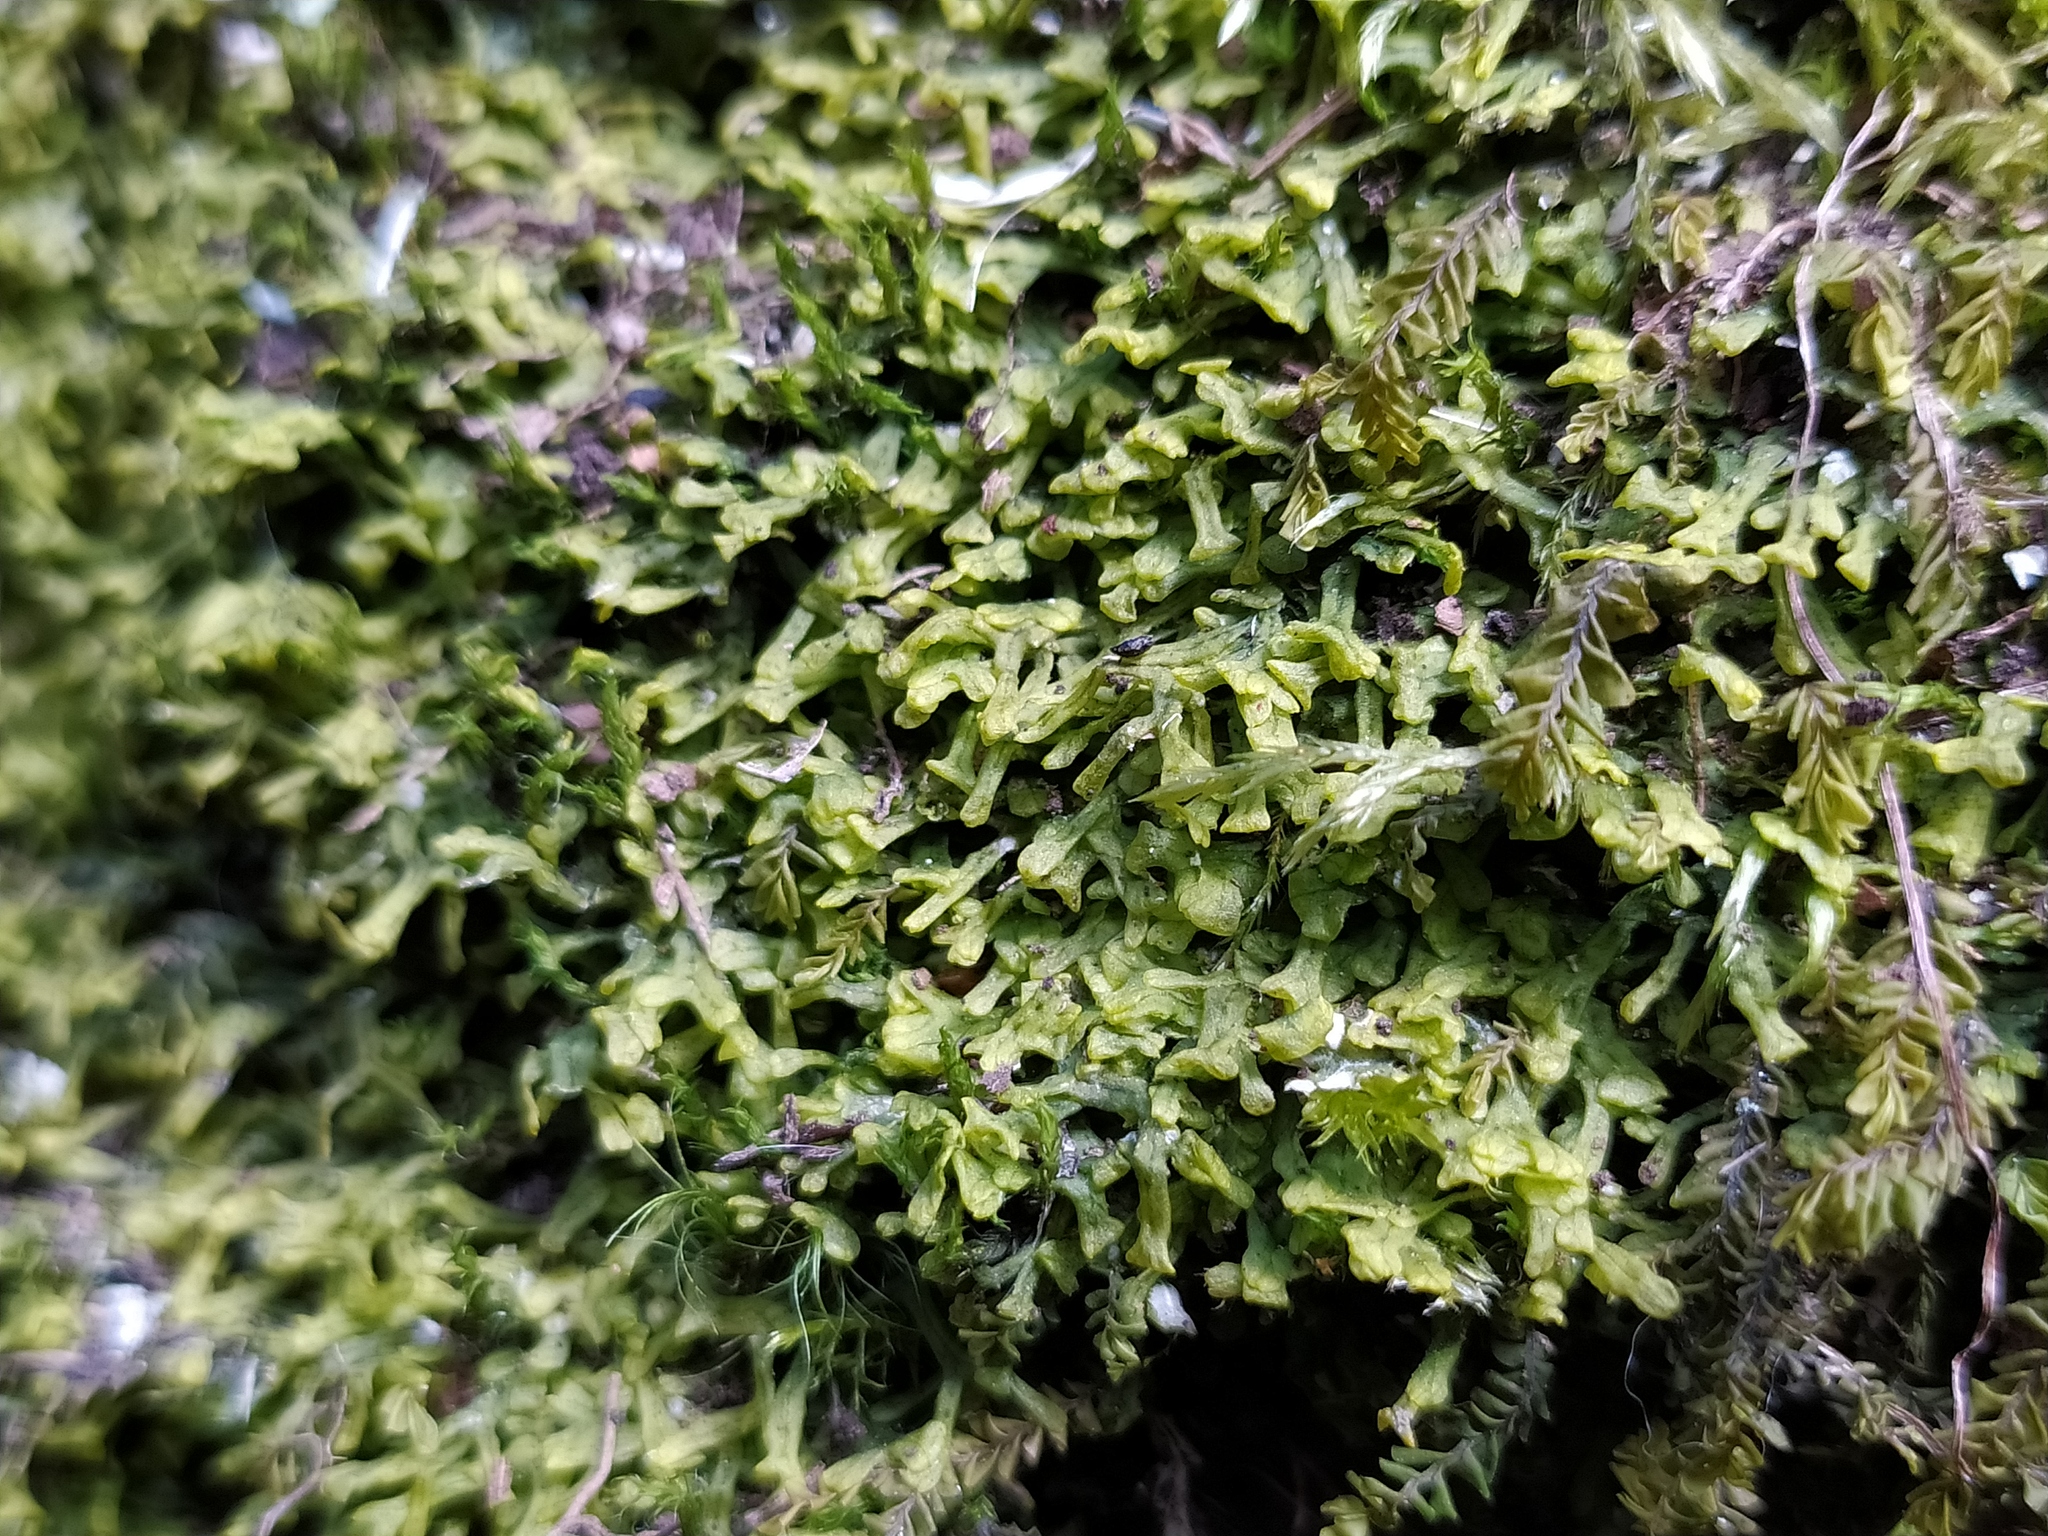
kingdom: Plantae
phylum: Marchantiophyta
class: Jungermanniopsida
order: Metzgeriales
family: Metzgeriaceae
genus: Metzgeria
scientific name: Metzgeria conjugata
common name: Rock veilwort
